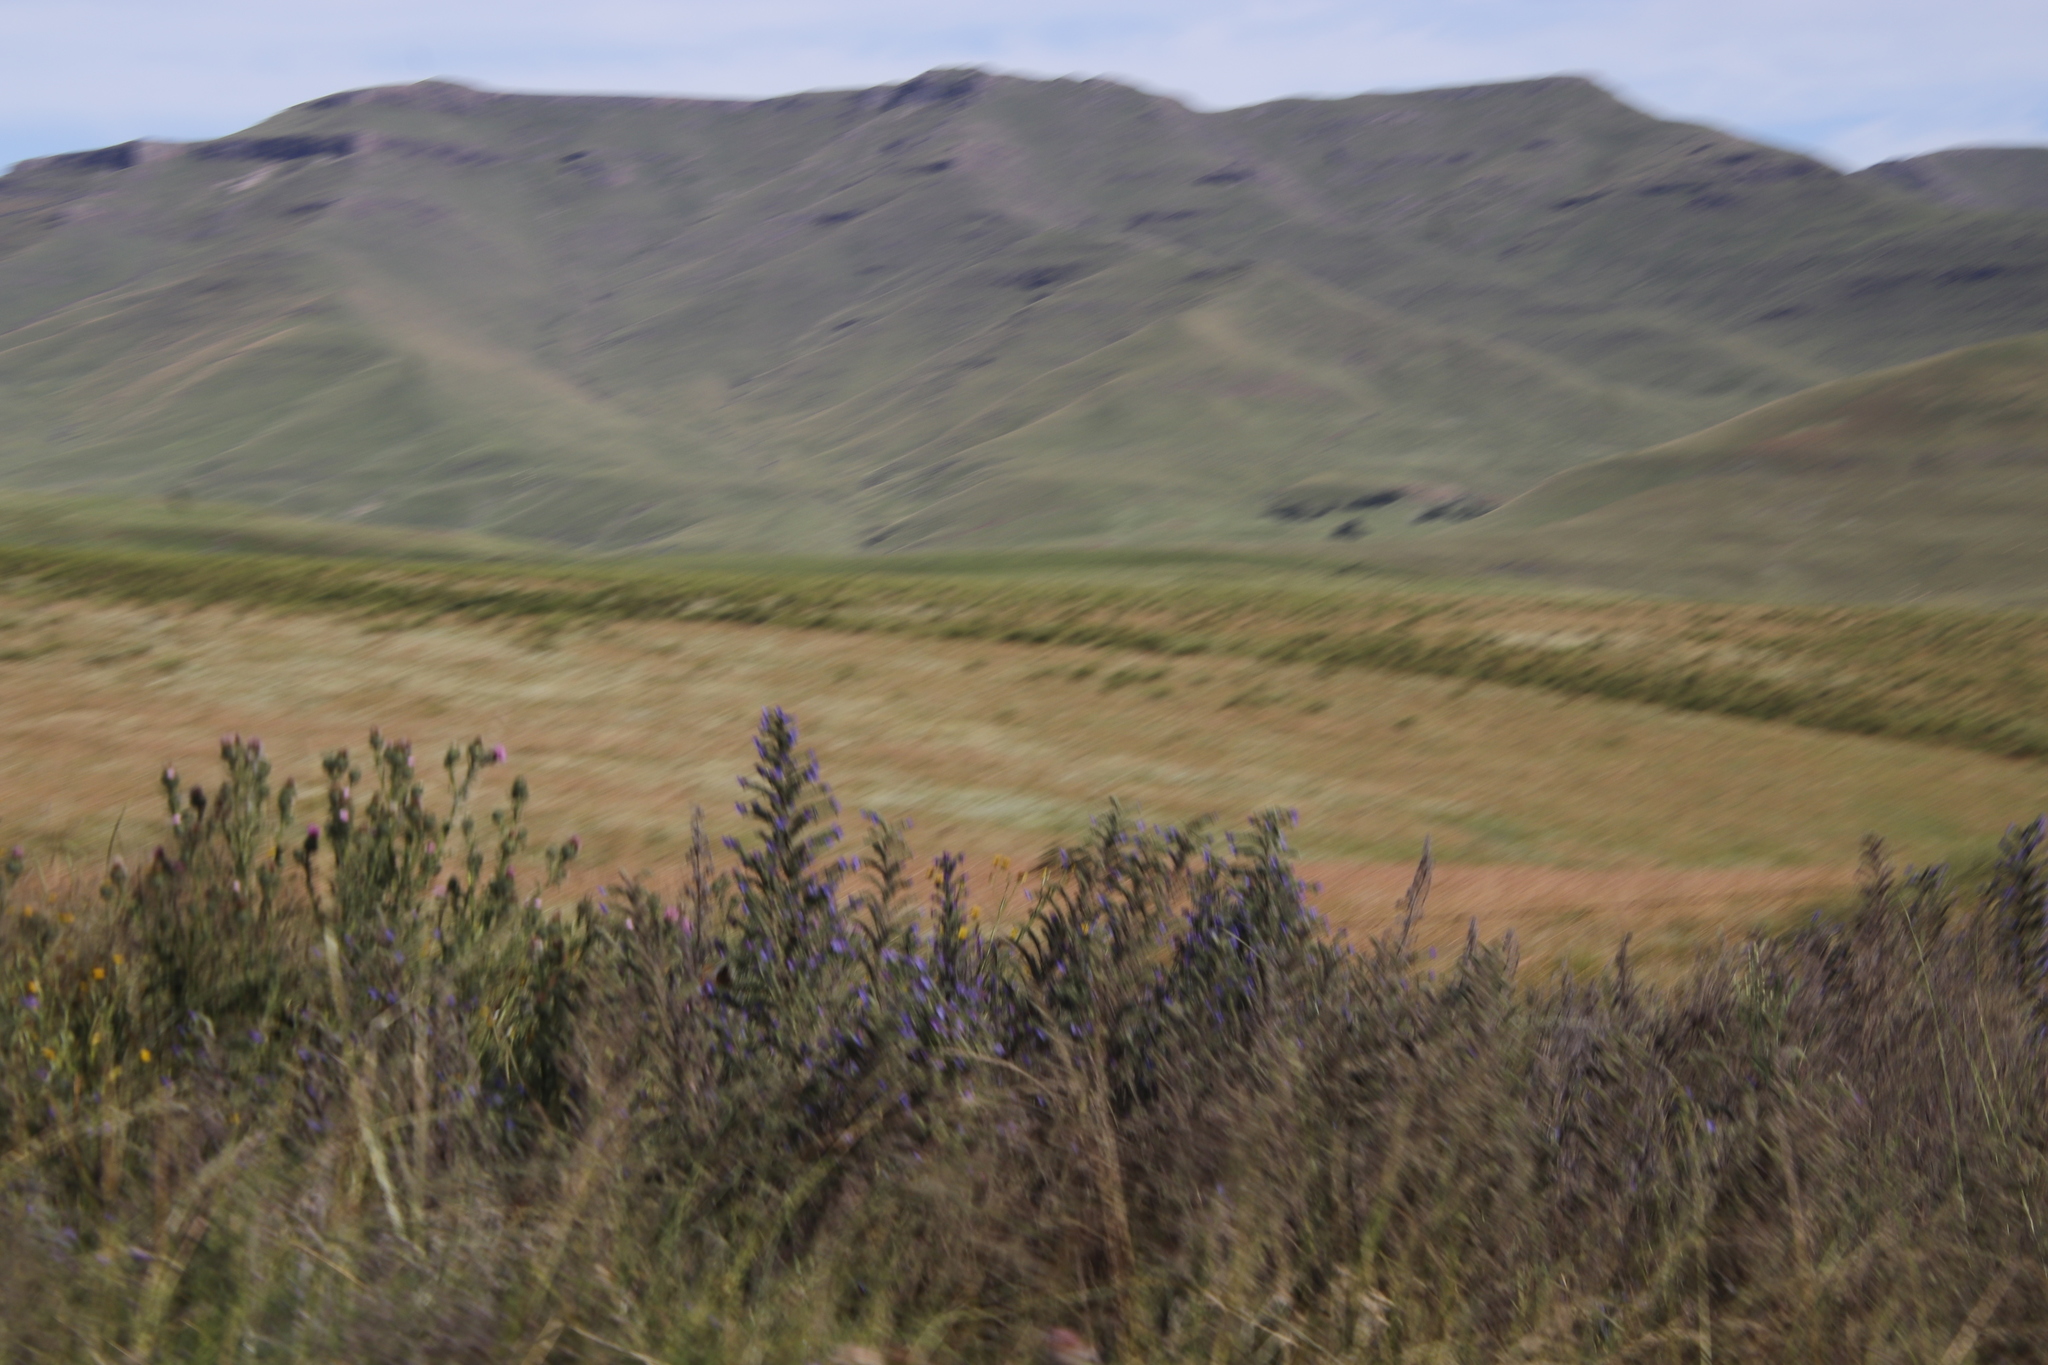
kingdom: Plantae
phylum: Tracheophyta
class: Magnoliopsida
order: Boraginales
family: Boraginaceae
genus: Echium
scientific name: Echium vulgare
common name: Common viper's bugloss
